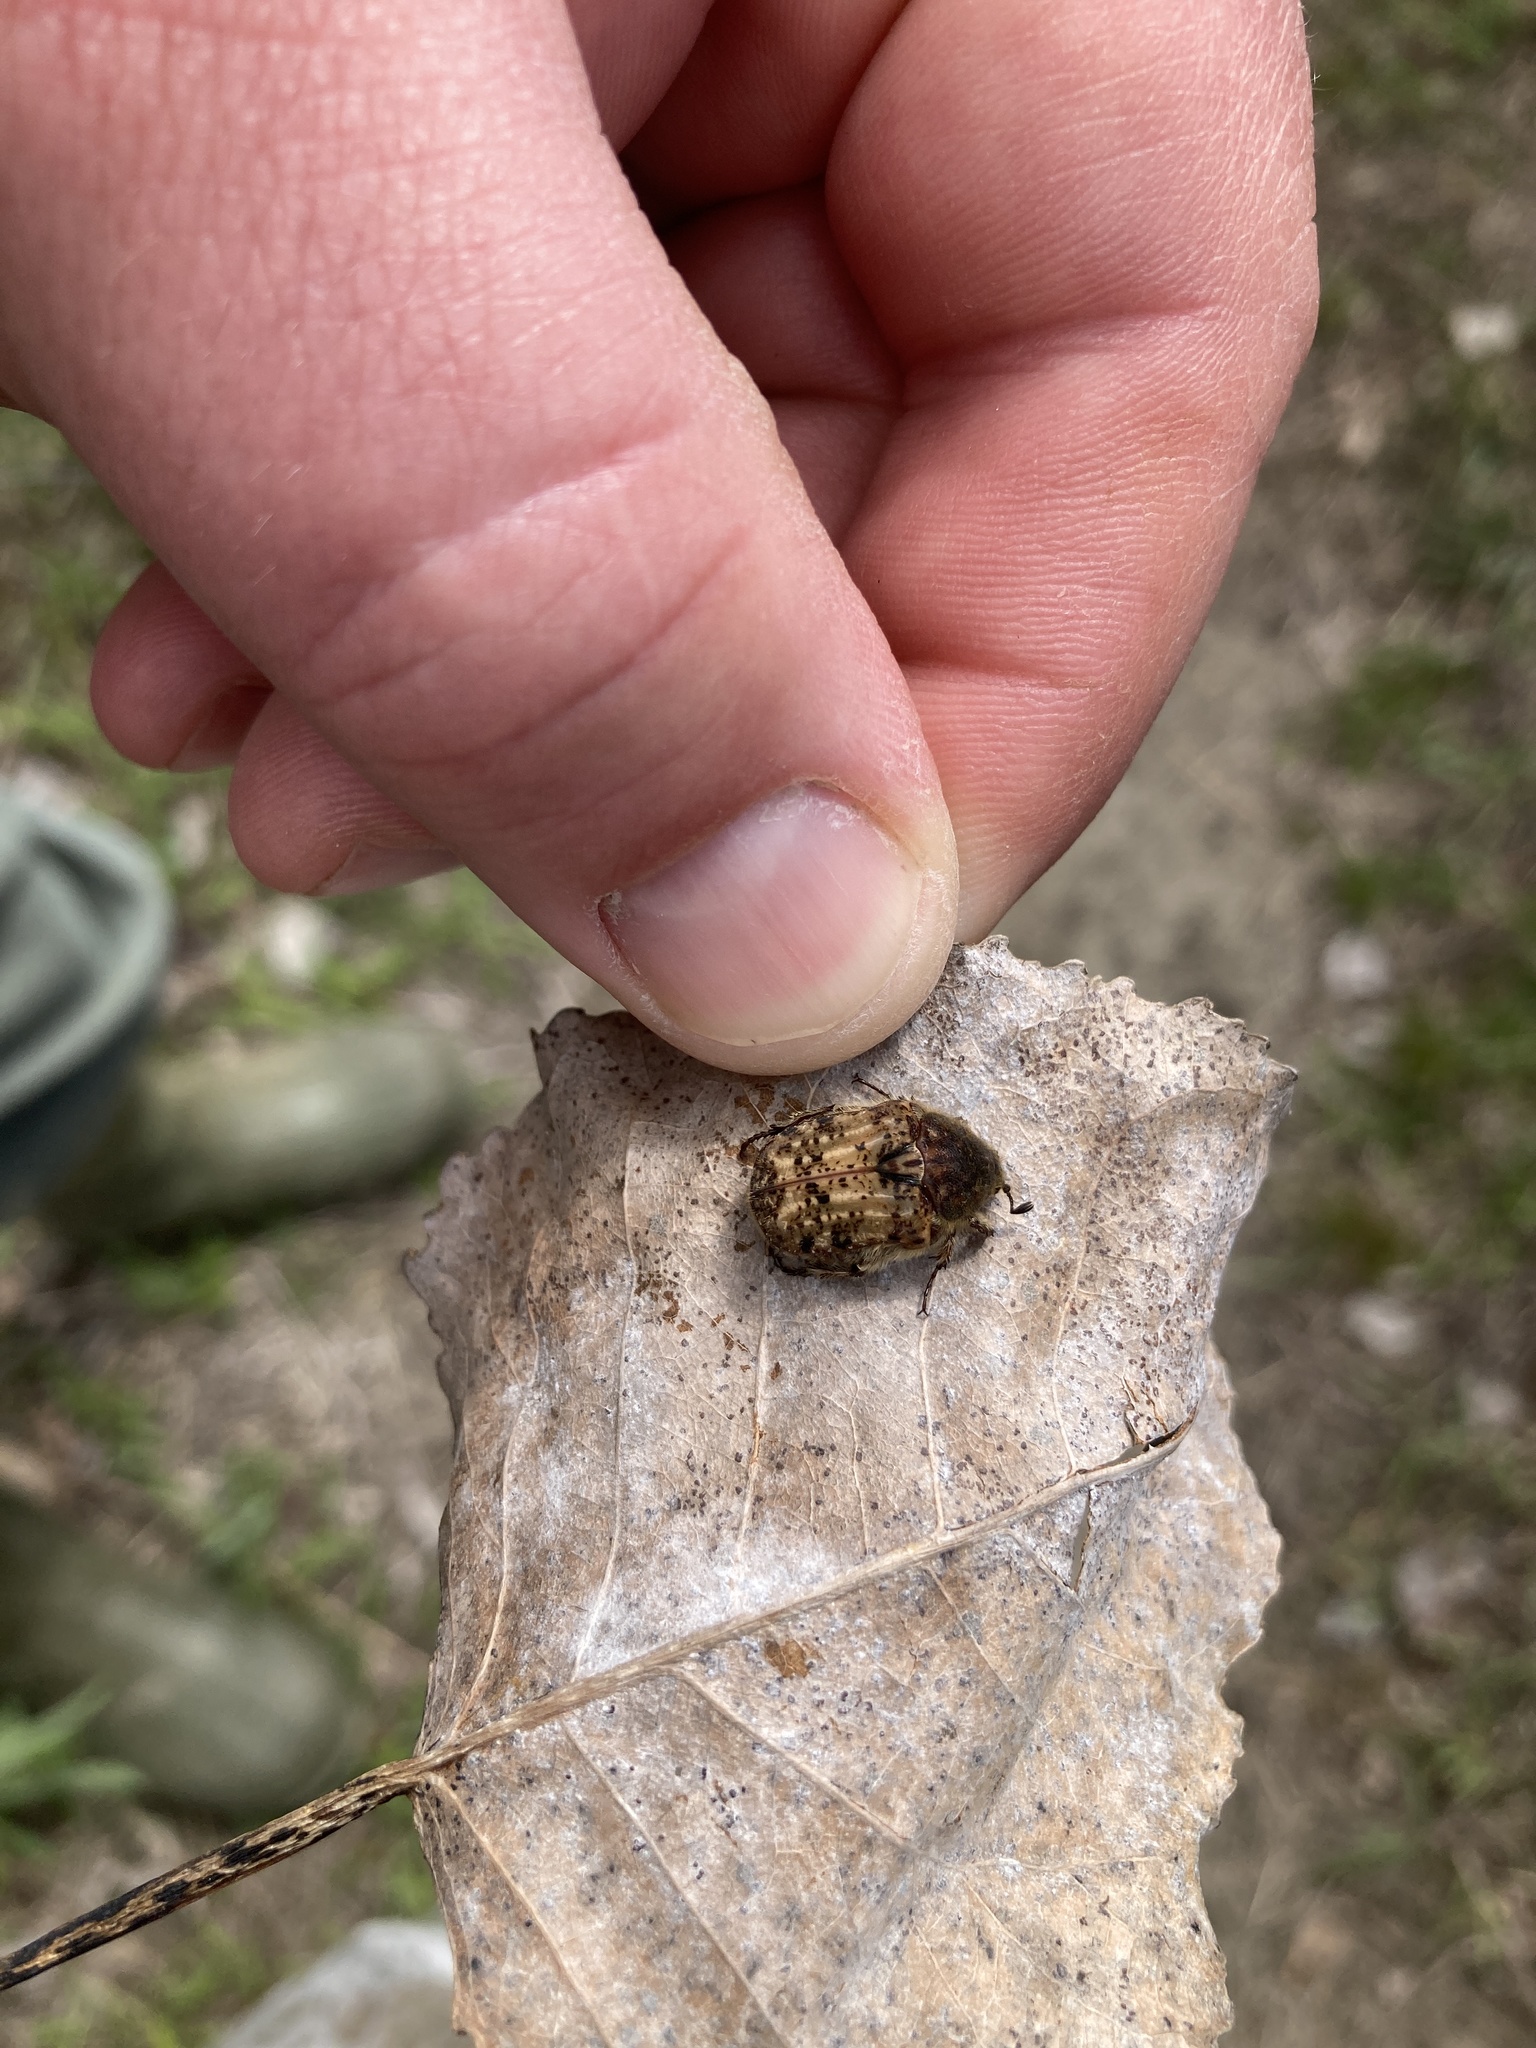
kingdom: Animalia
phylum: Arthropoda
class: Insecta
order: Coleoptera
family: Scarabaeidae
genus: Euphoria
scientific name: Euphoria inda
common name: Bumble flower beetle
